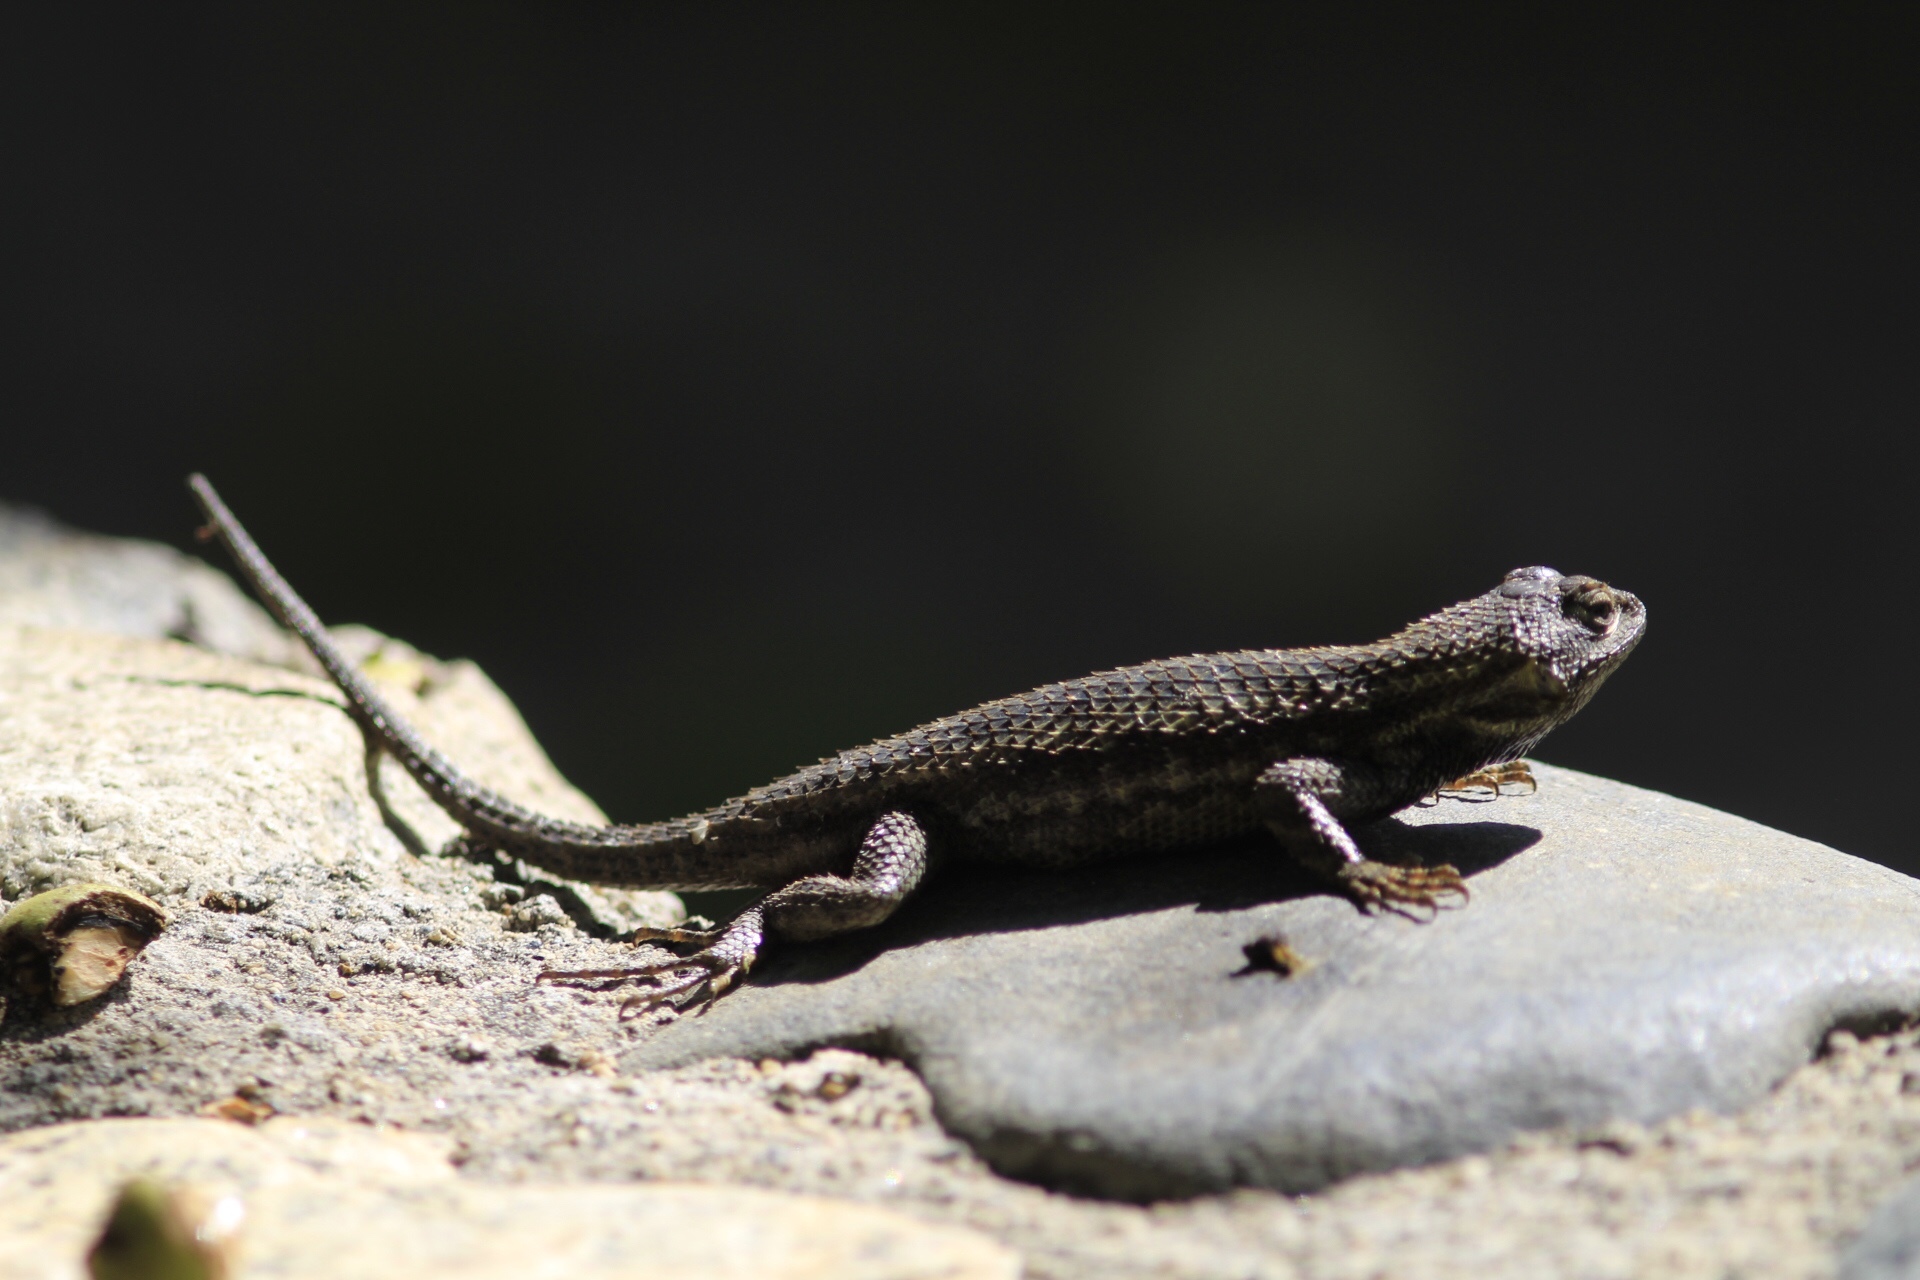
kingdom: Animalia
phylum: Chordata
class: Squamata
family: Phrynosomatidae
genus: Sceloporus
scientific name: Sceloporus occidentalis
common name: Western fence lizard
